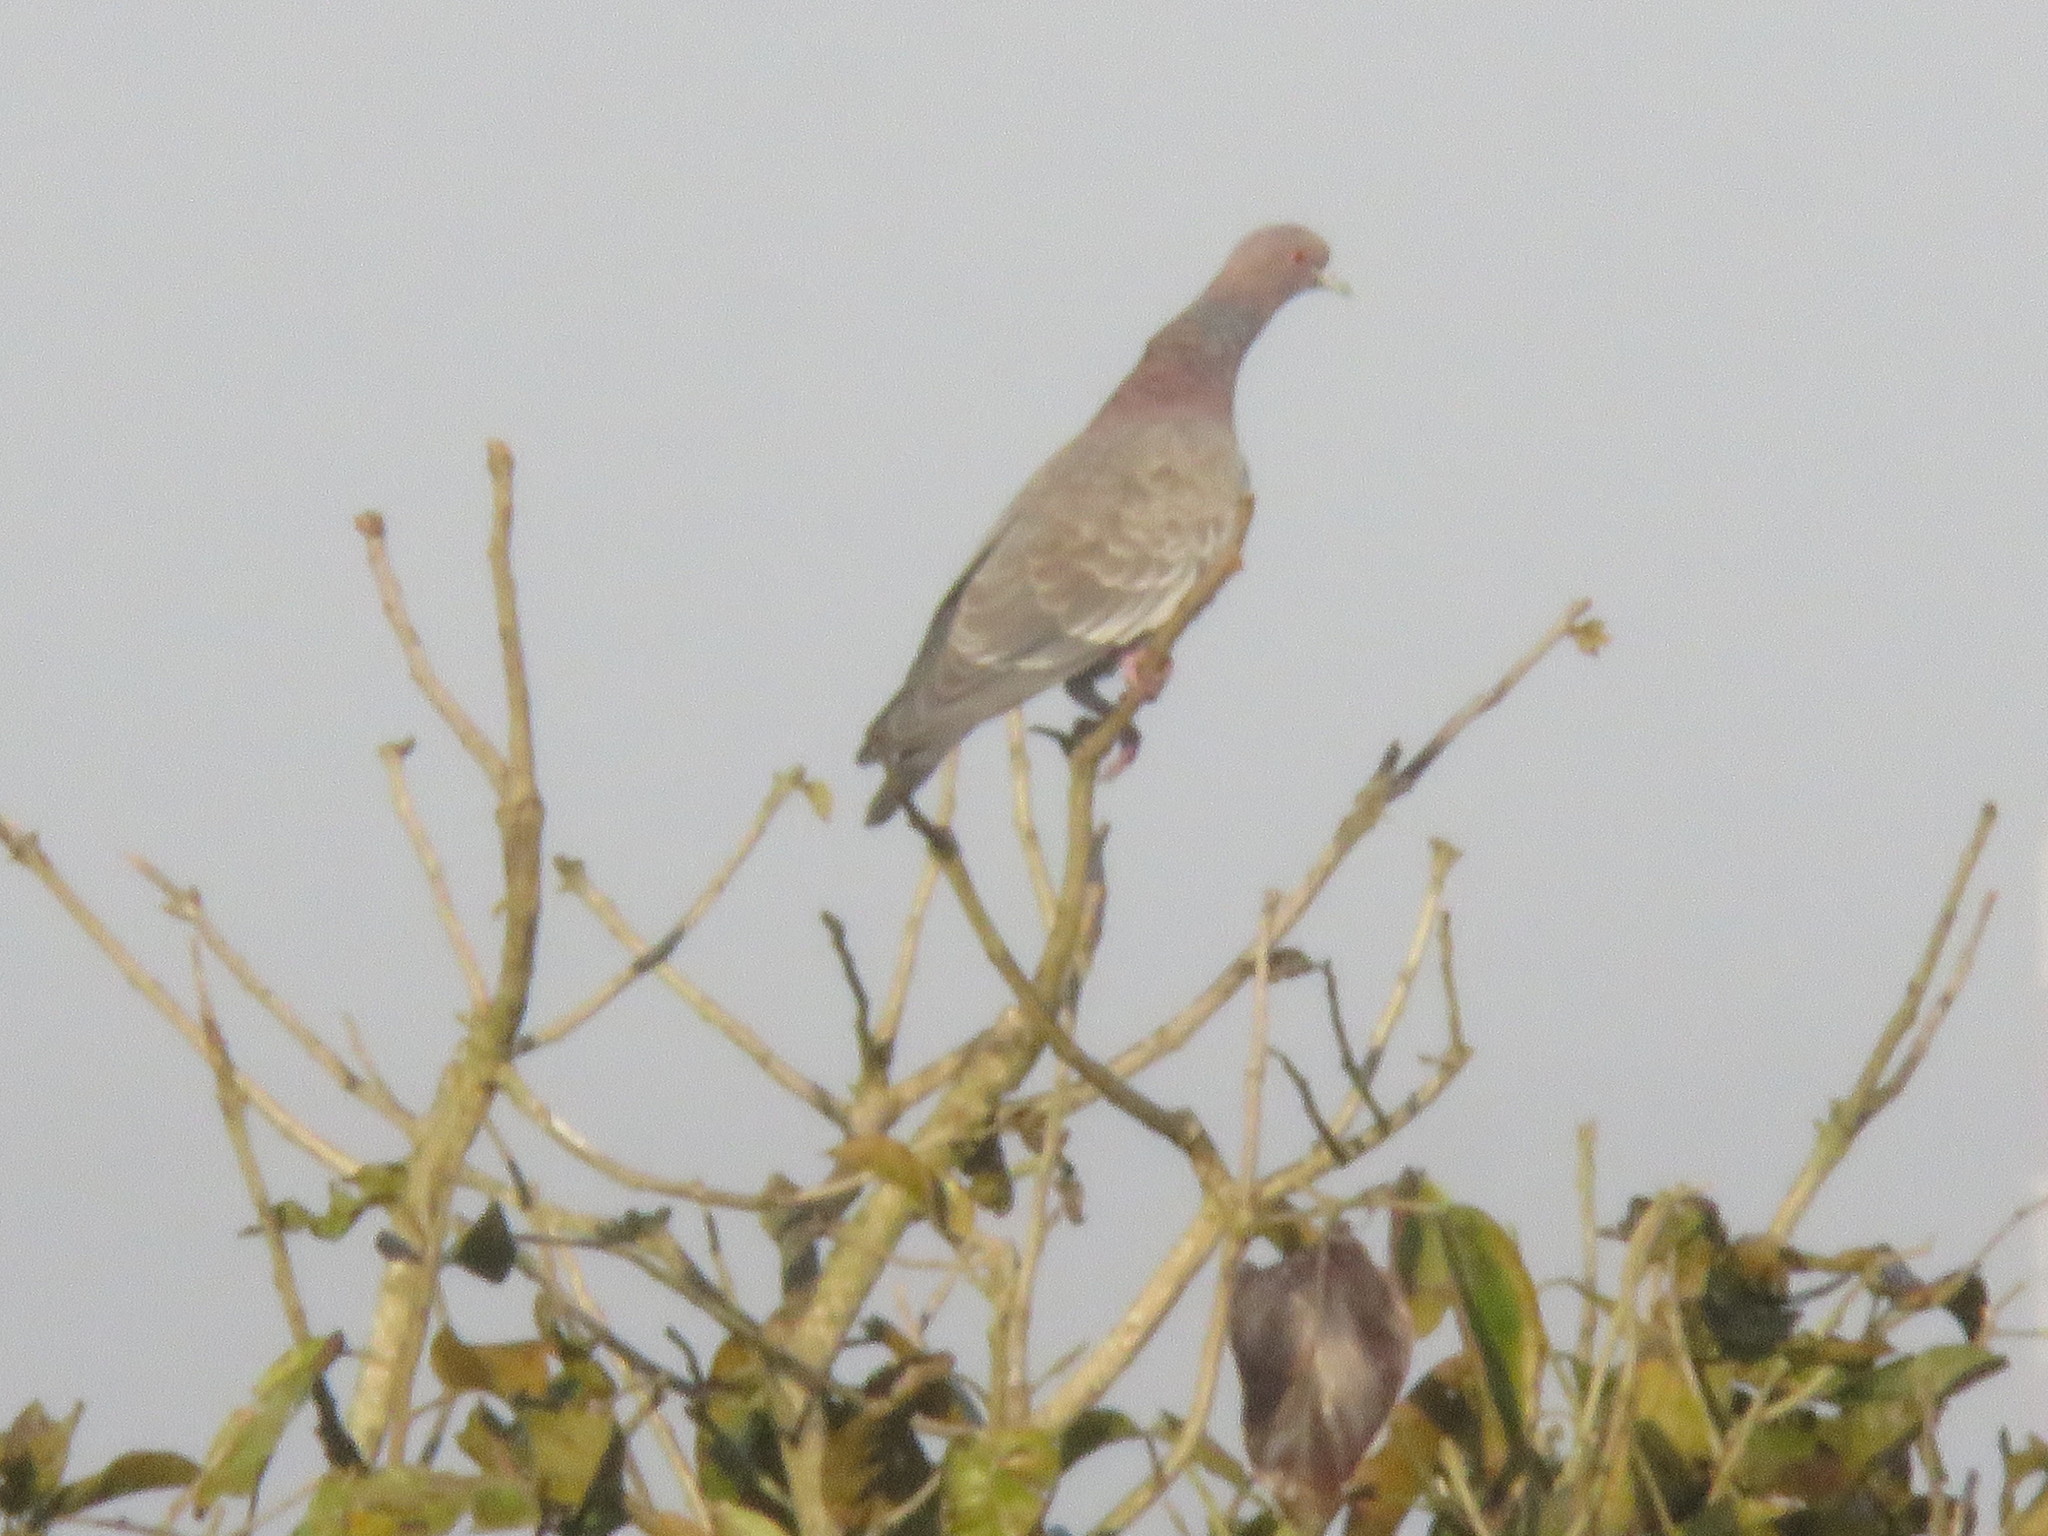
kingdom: Animalia
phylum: Chordata
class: Aves
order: Columbiformes
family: Columbidae
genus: Patagioenas
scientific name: Patagioenas picazuro
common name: Picazuro pigeon
